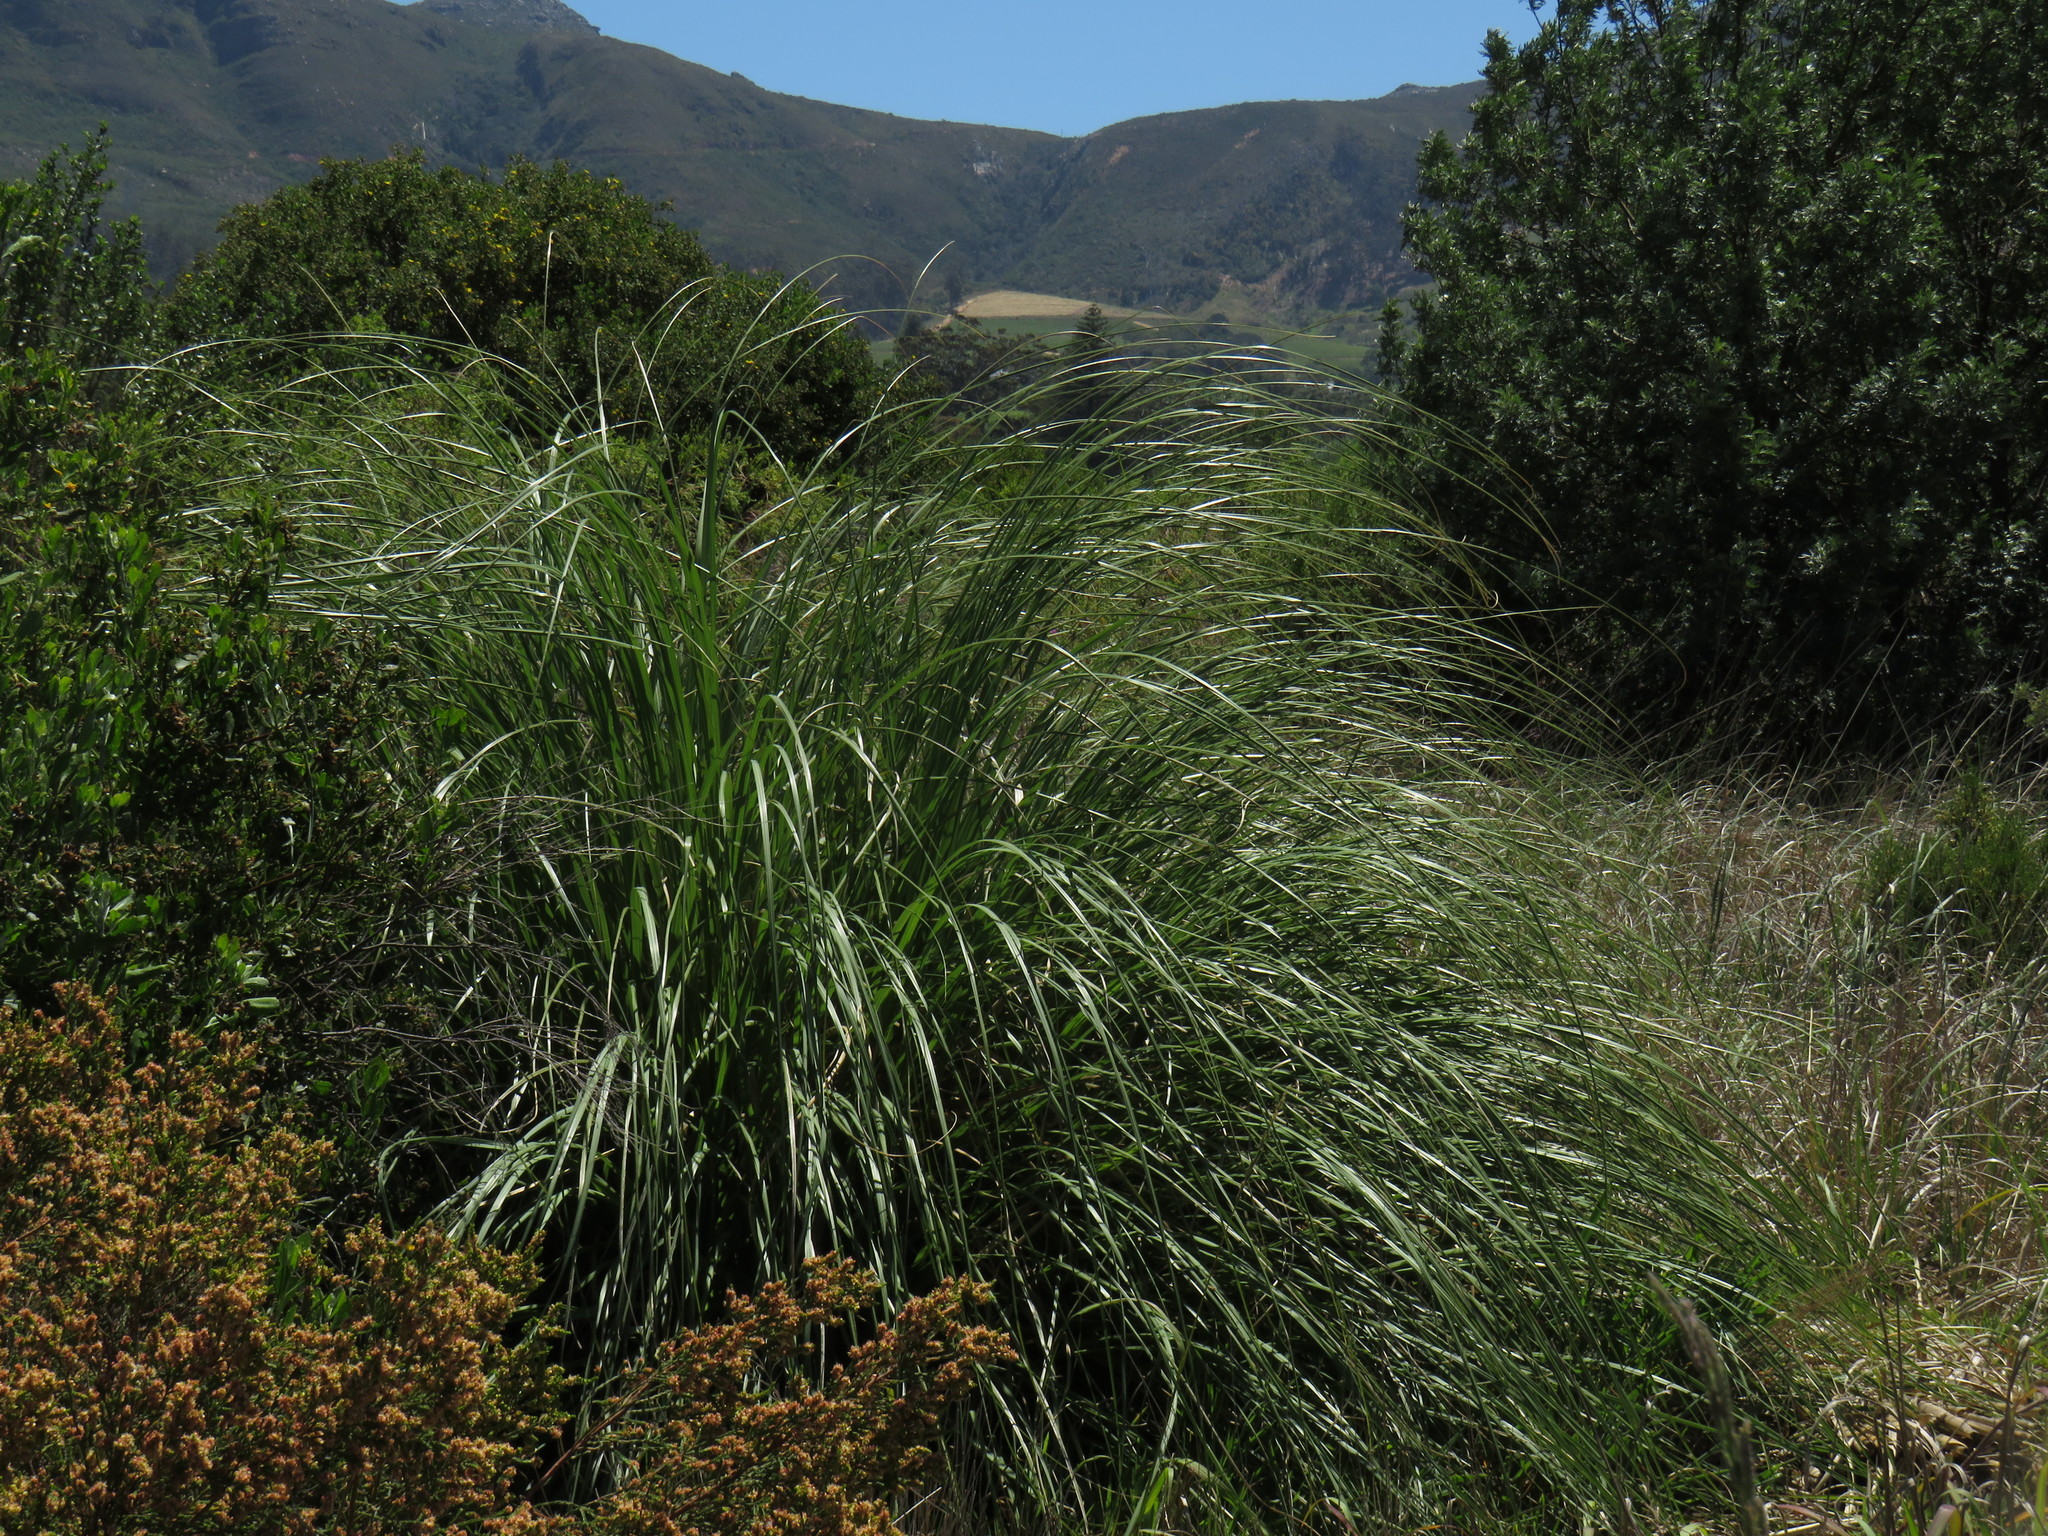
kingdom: Plantae
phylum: Tracheophyta
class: Liliopsida
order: Poales
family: Poaceae
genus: Cortaderia
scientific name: Cortaderia selloana
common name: Uruguayan pampas grass
